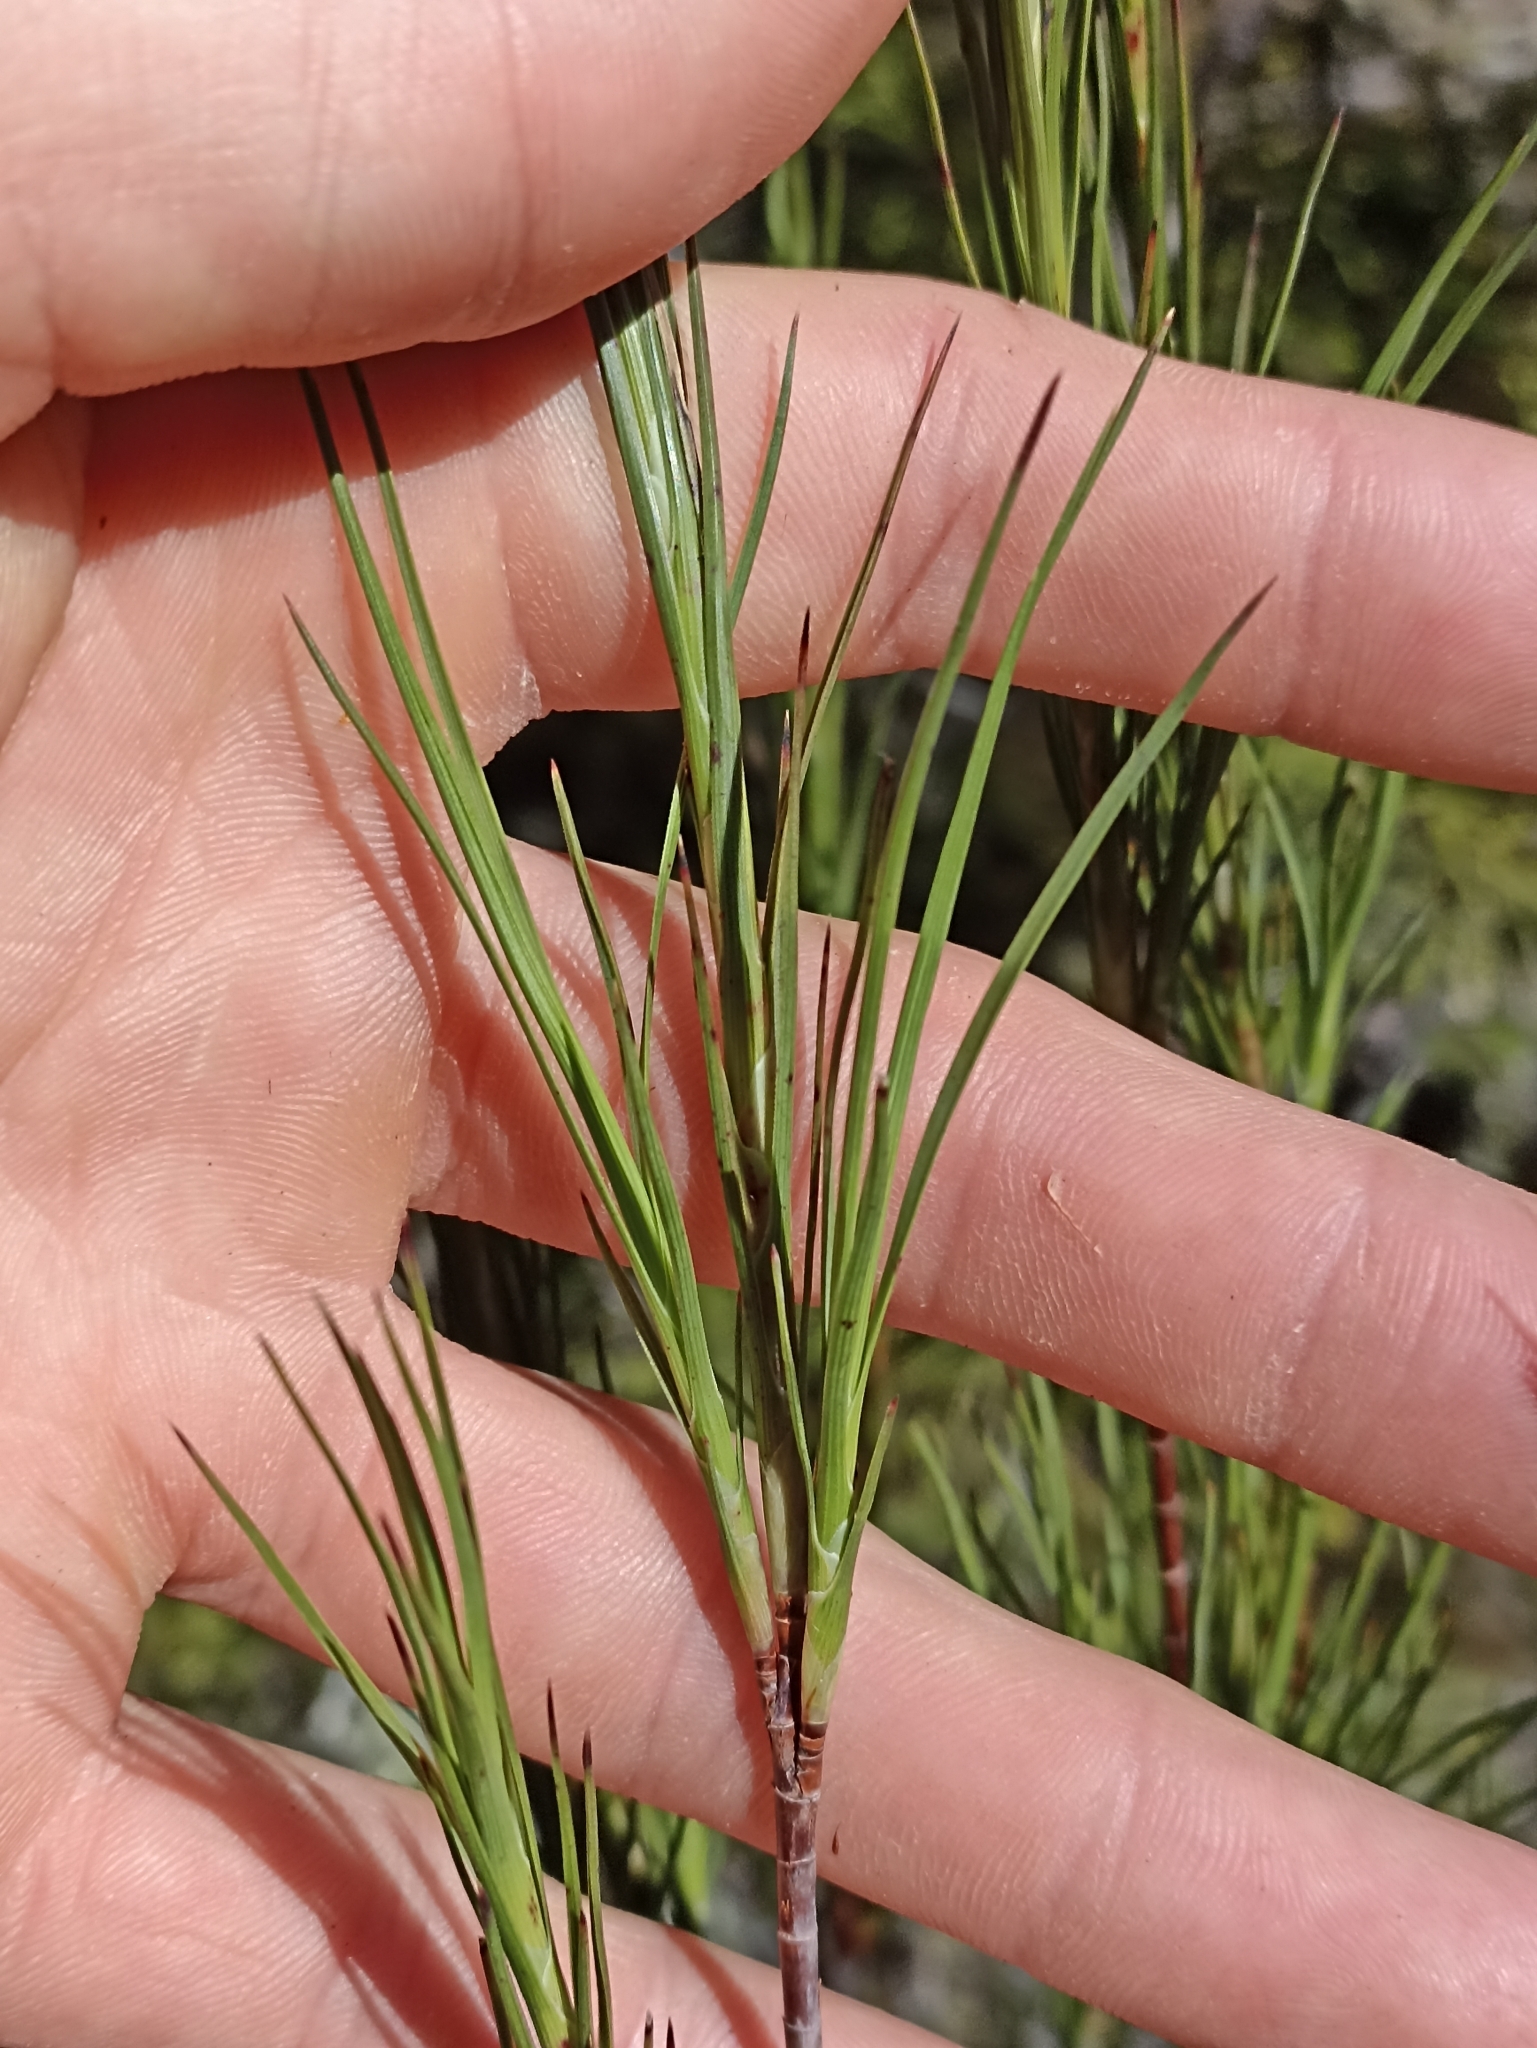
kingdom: Plantae
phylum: Tracheophyta
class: Magnoliopsida
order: Ericales
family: Ericaceae
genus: Dracophyllum
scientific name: Dracophyllum longifolium
